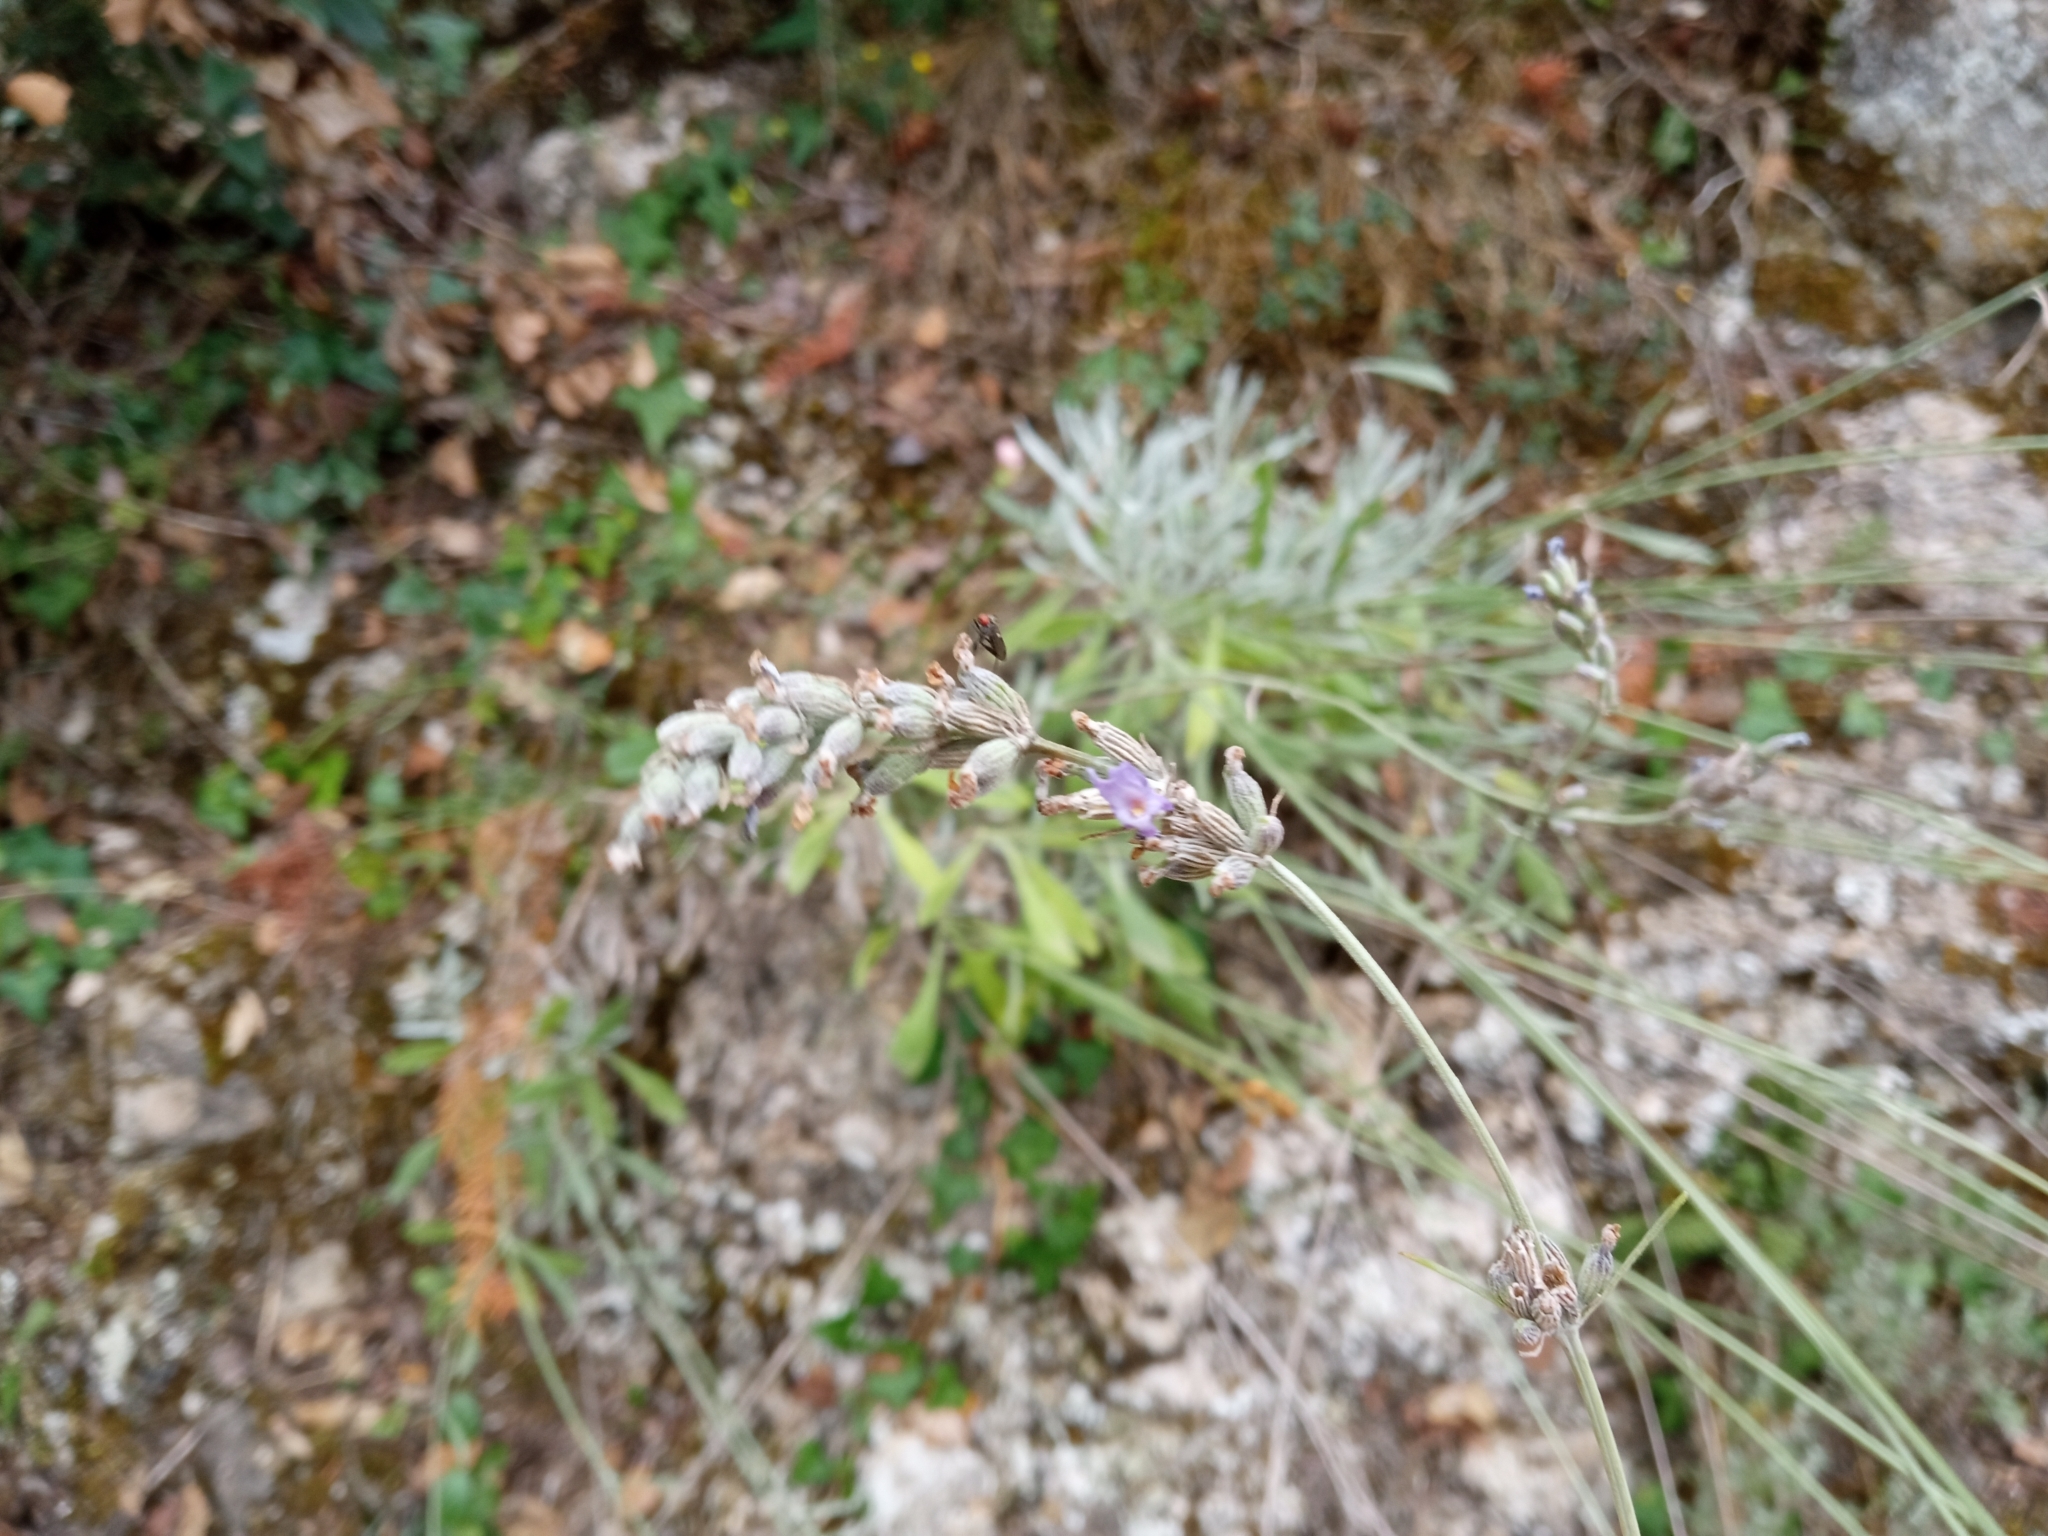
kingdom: Plantae
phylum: Tracheophyta
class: Magnoliopsida
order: Lamiales
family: Lamiaceae
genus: Lavandula
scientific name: Lavandula latifolia
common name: Spike lavendar
